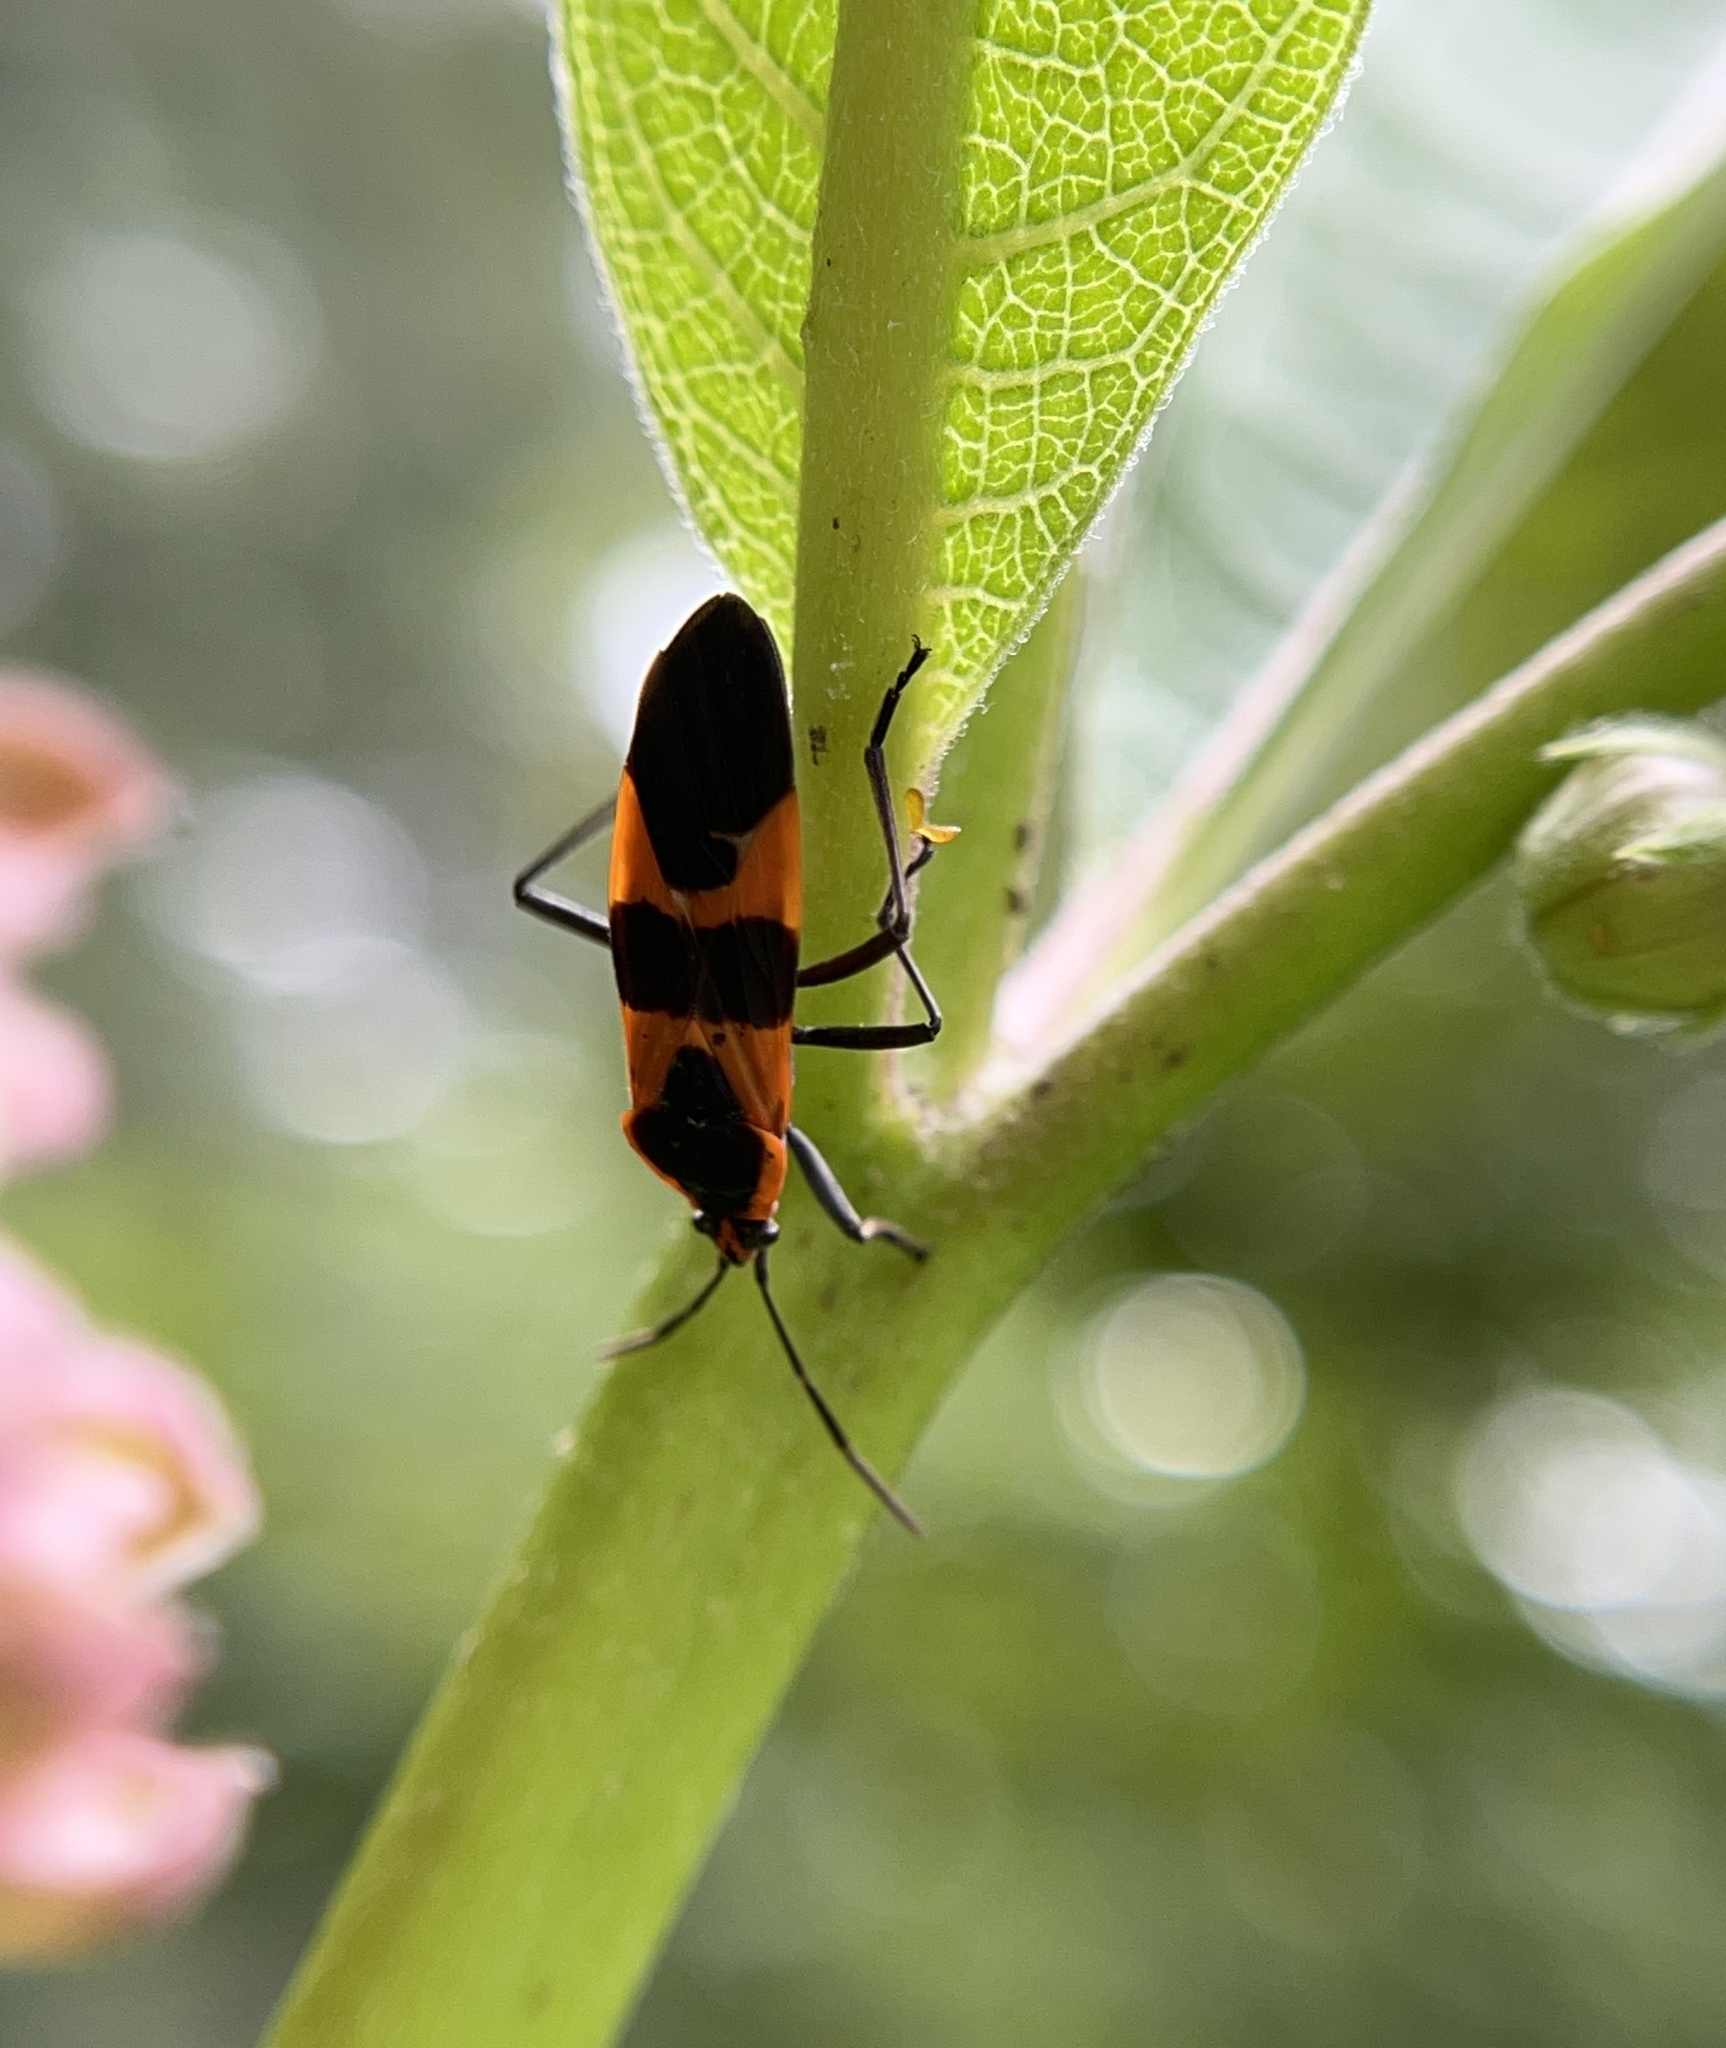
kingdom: Animalia
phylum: Arthropoda
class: Insecta
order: Hemiptera
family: Lygaeidae
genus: Oncopeltus
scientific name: Oncopeltus fasciatus
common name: Large milkweed bug
